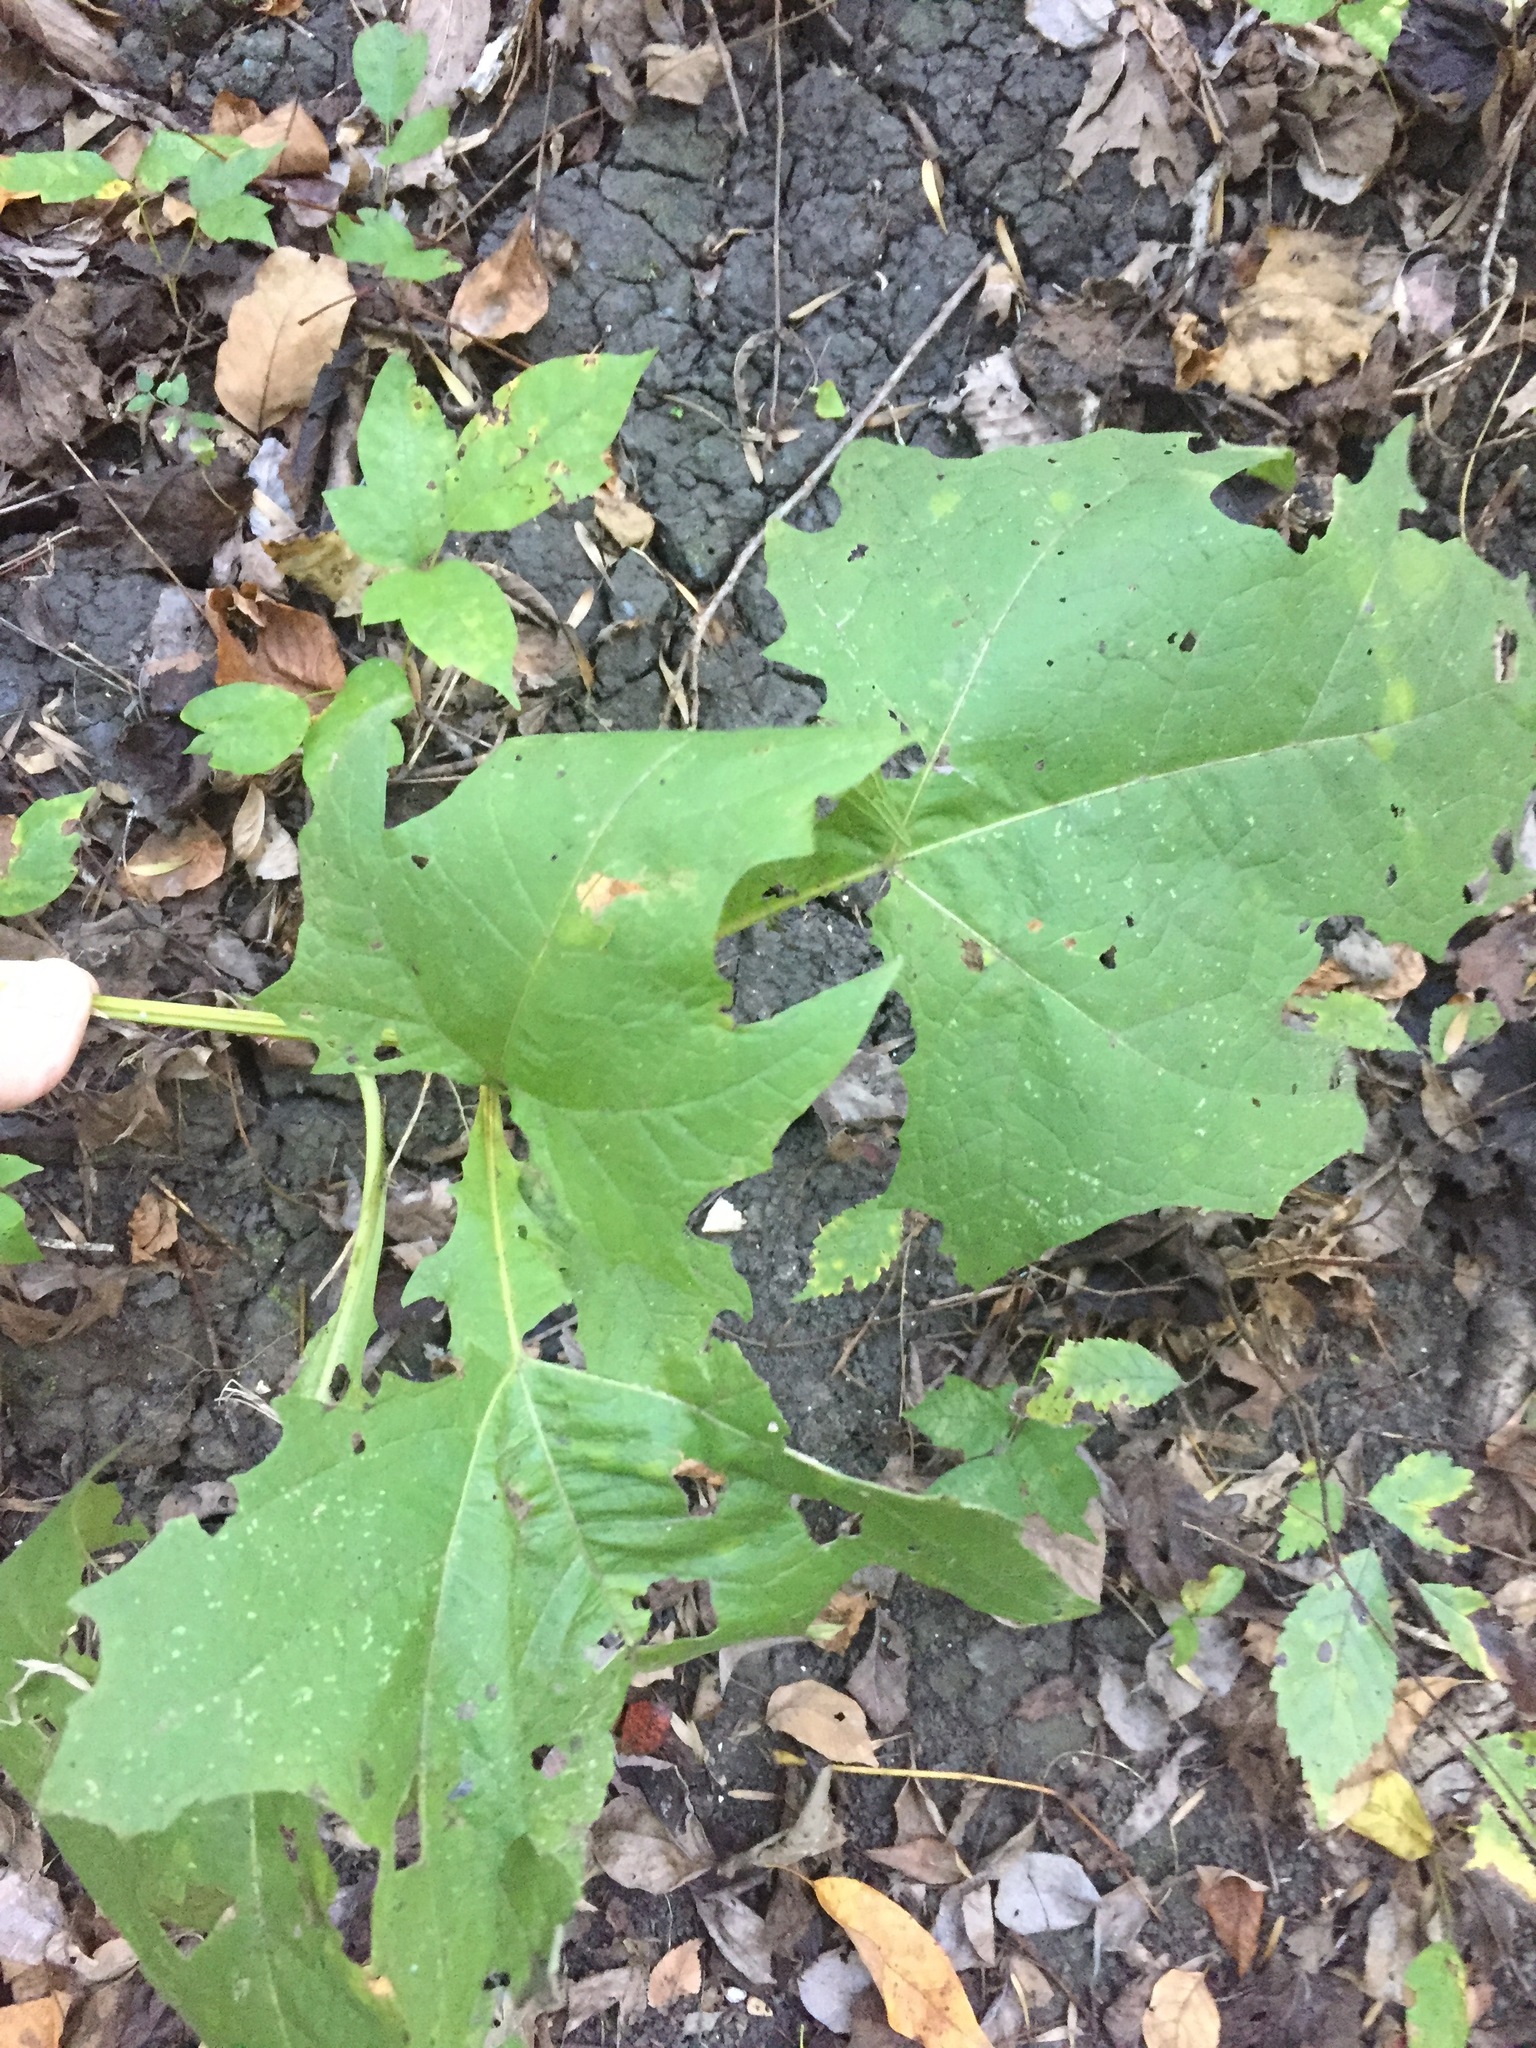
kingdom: Plantae
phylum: Tracheophyta
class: Magnoliopsida
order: Asterales
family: Asteraceae
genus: Smallanthus
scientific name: Smallanthus uvedalia
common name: Bear's-foot
